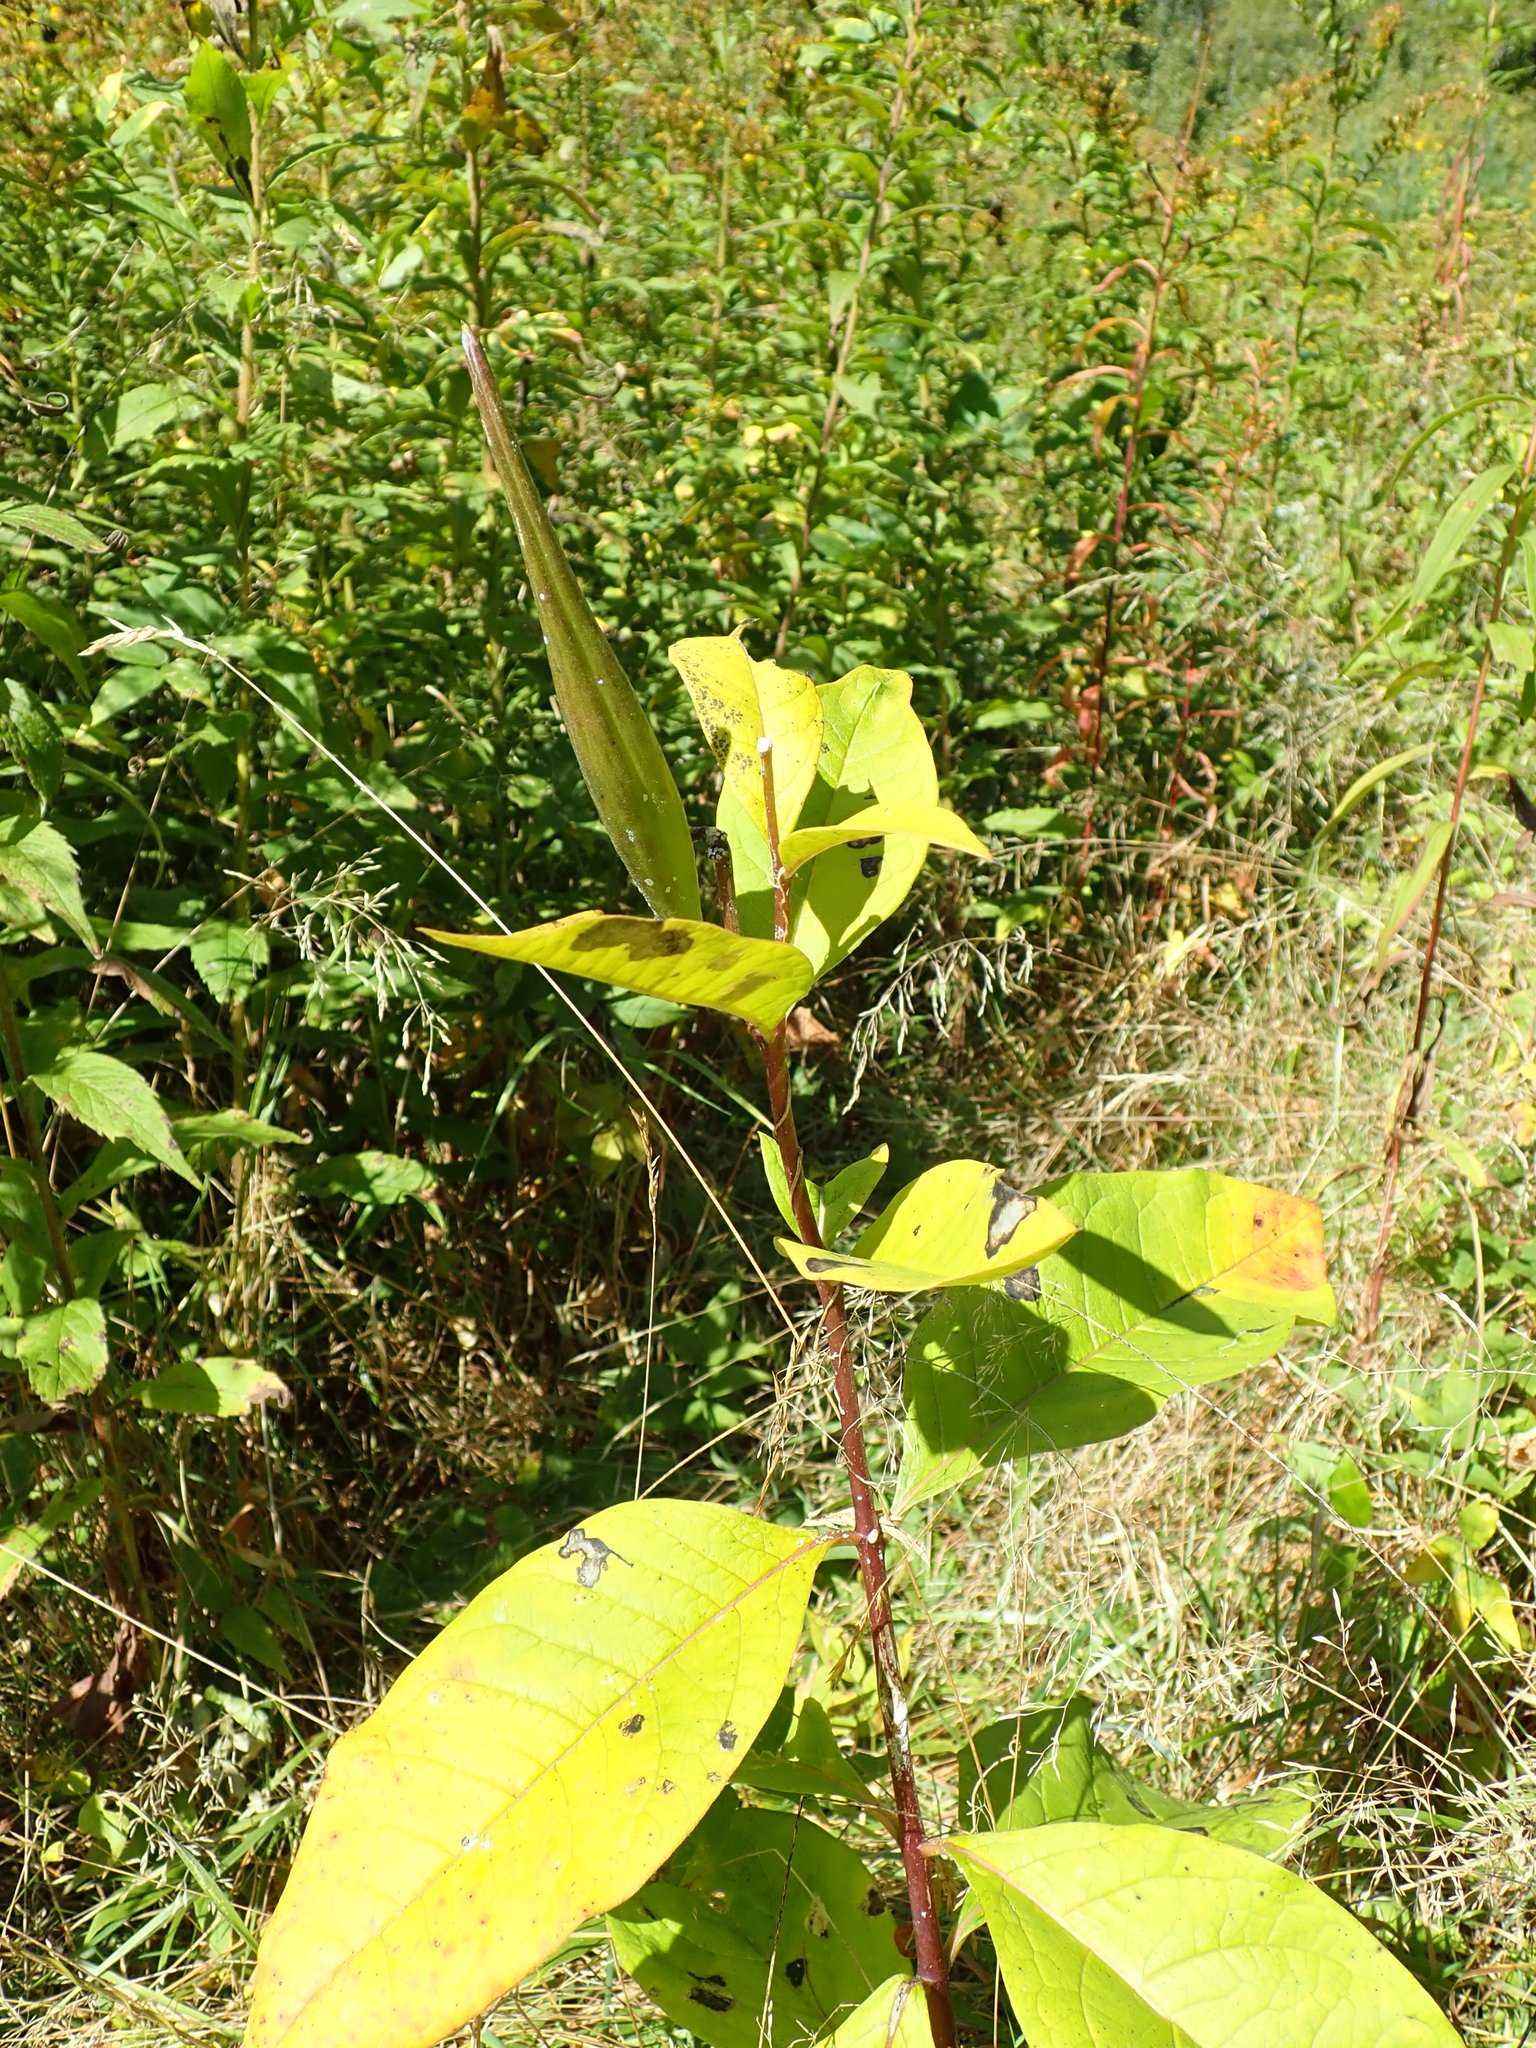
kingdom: Plantae
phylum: Tracheophyta
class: Magnoliopsida
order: Gentianales
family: Apocynaceae
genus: Asclepias
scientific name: Asclepias exaltata
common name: Poke milkweed
